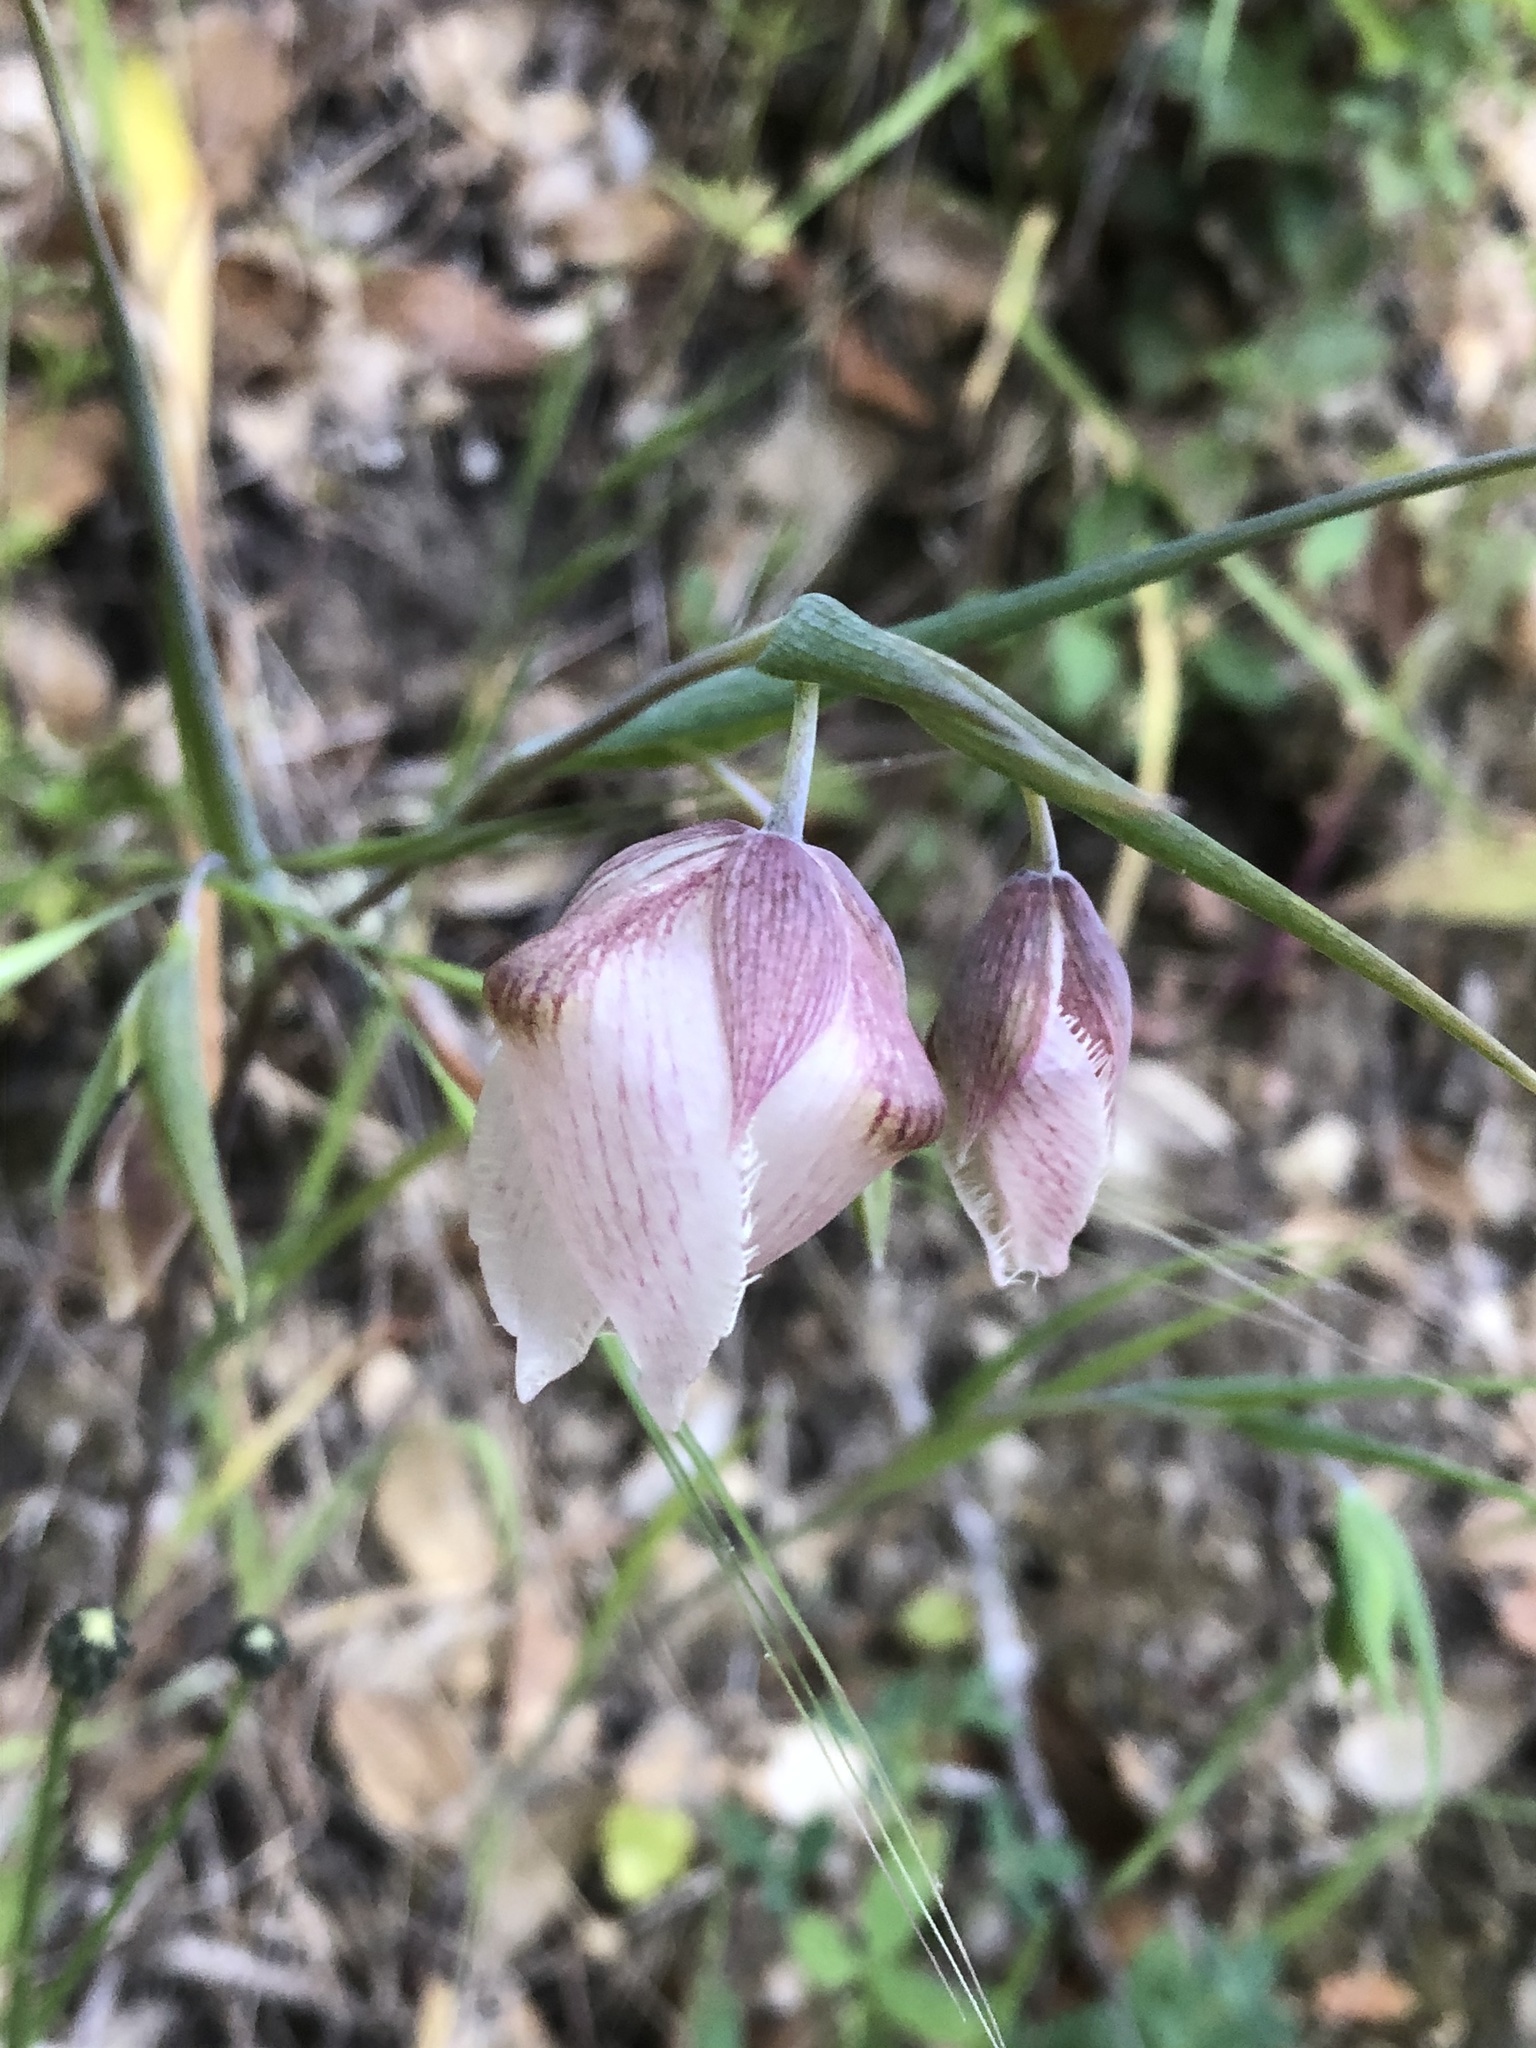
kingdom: Plantae
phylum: Tracheophyta
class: Liliopsida
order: Liliales
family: Liliaceae
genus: Calochortus
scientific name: Calochortus albus
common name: Fairy-lantern
